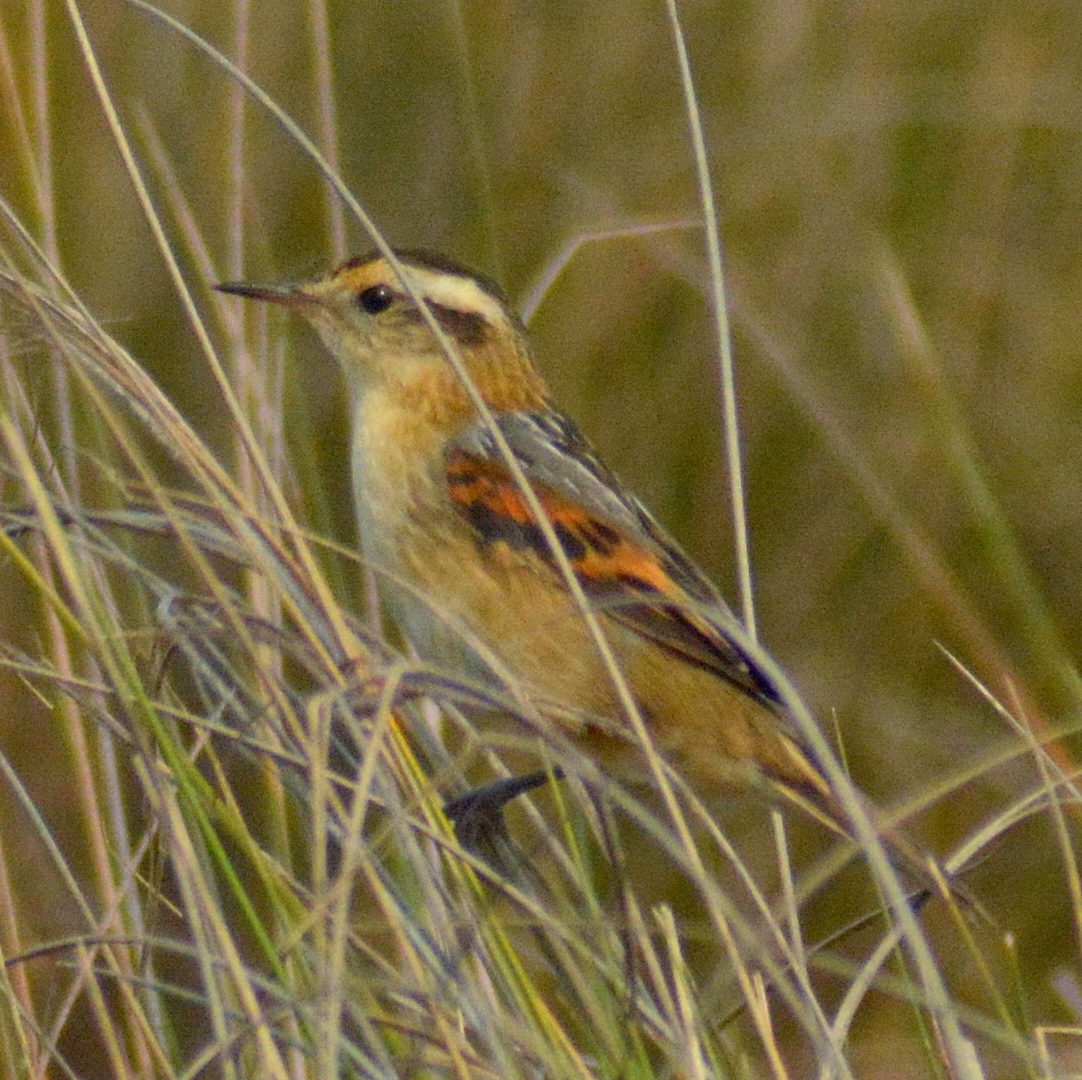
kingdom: Animalia
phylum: Chordata
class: Aves
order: Passeriformes
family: Furnariidae
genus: Phleocryptes
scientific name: Phleocryptes melanops
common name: Wren-like rushbird
